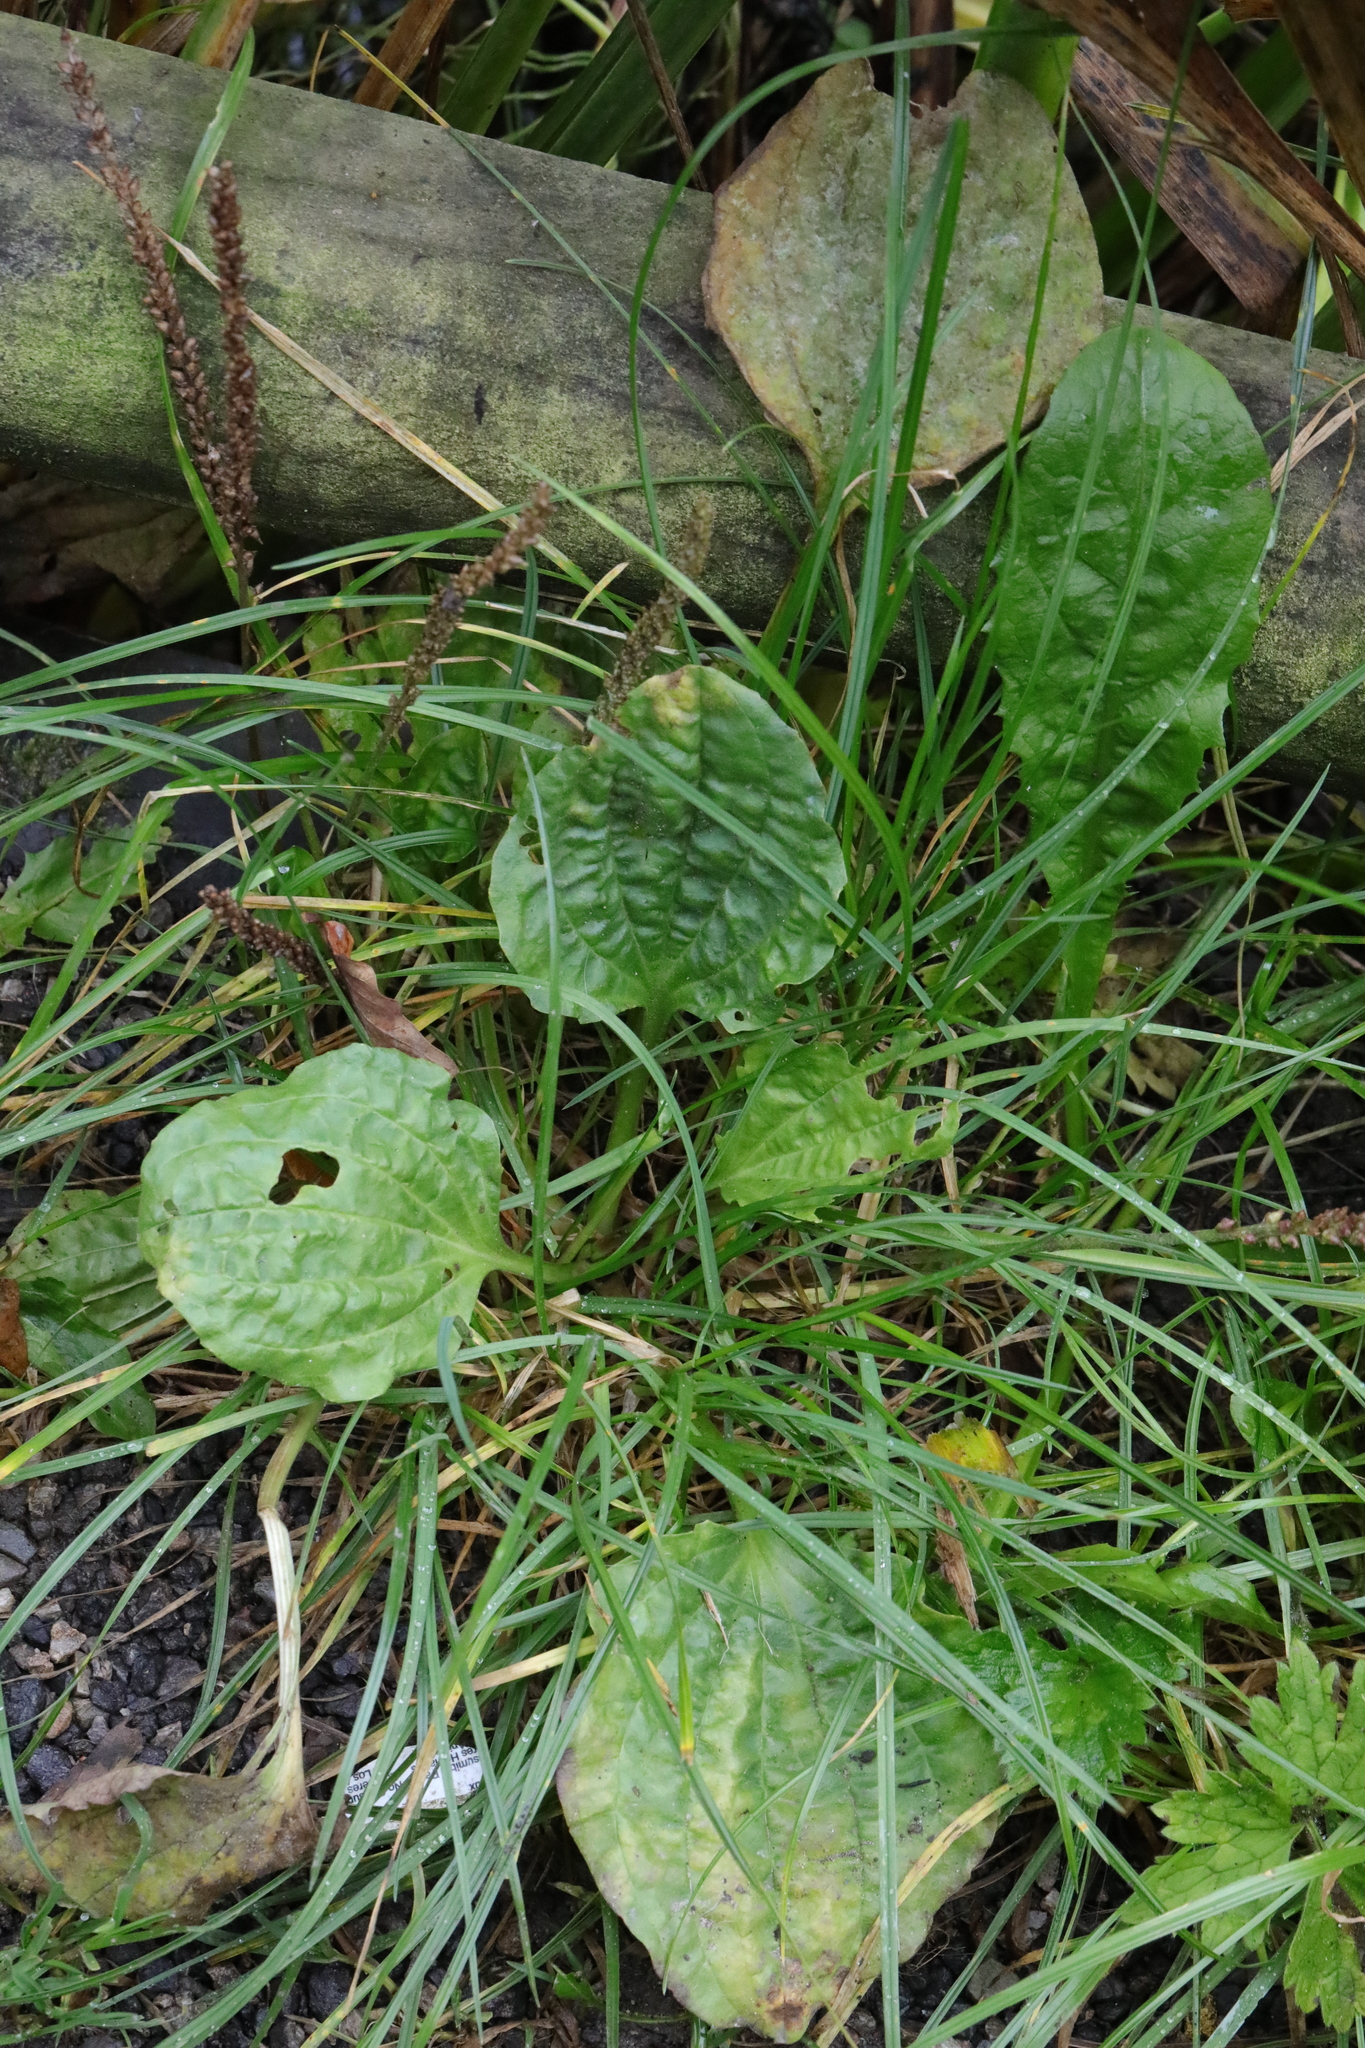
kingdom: Plantae
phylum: Tracheophyta
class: Magnoliopsida
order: Lamiales
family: Plantaginaceae
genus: Plantago
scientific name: Plantago major
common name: Common plantain
